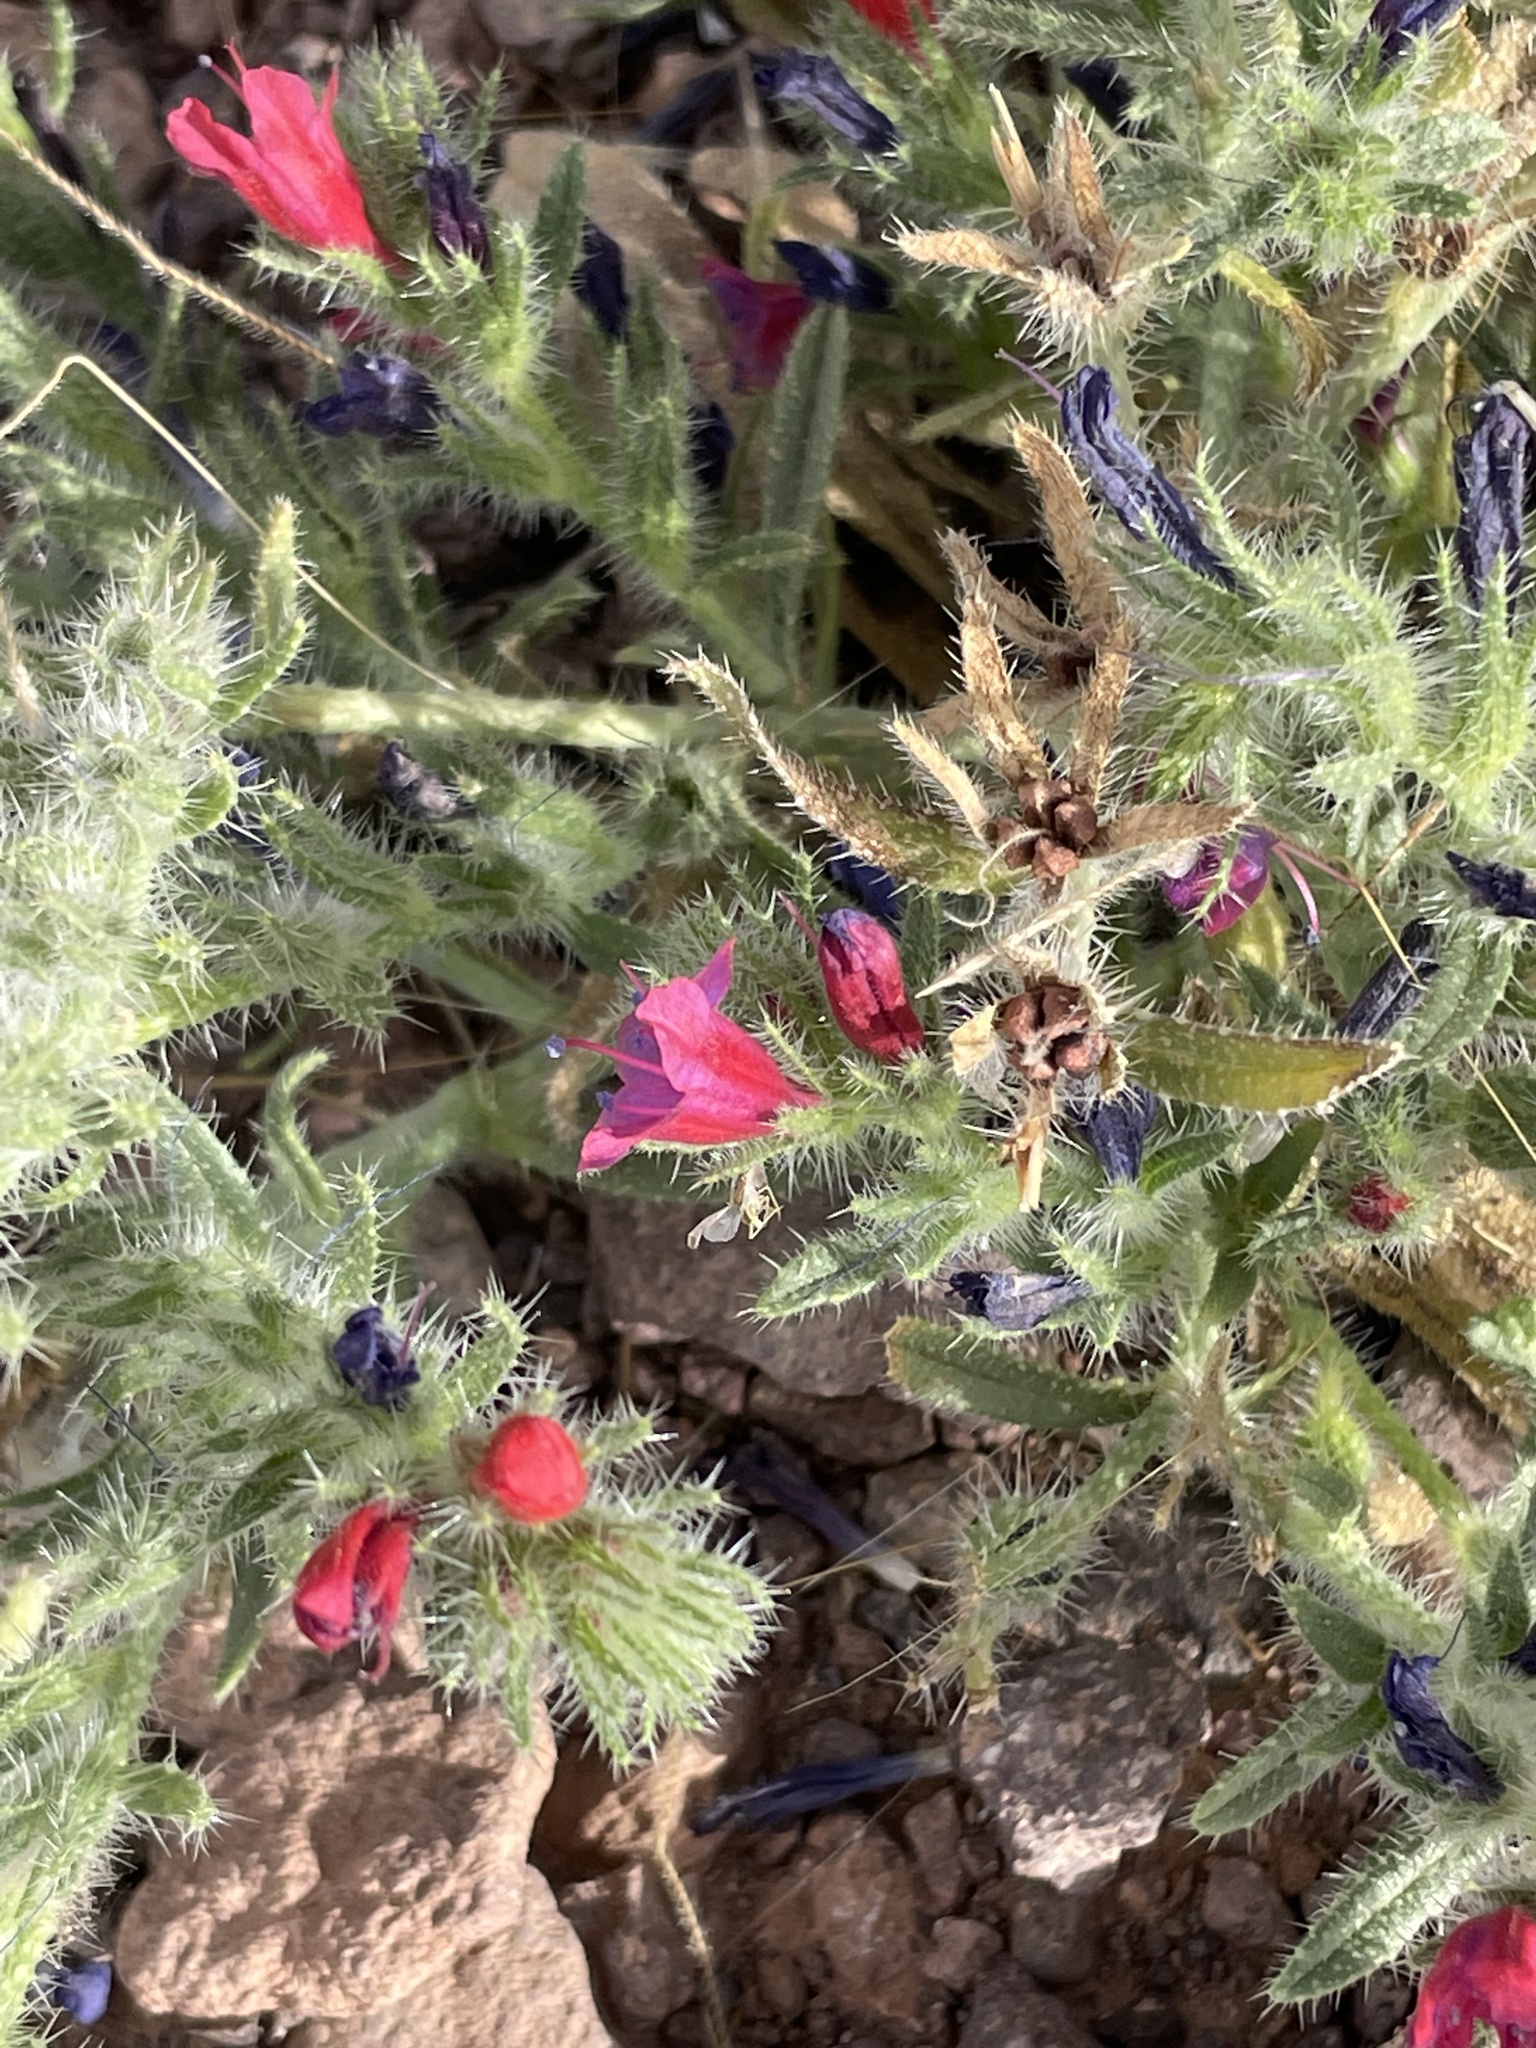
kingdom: Plantae
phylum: Tracheophyta
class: Magnoliopsida
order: Boraginales
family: Boraginaceae
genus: Echium
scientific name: Echium horridum
